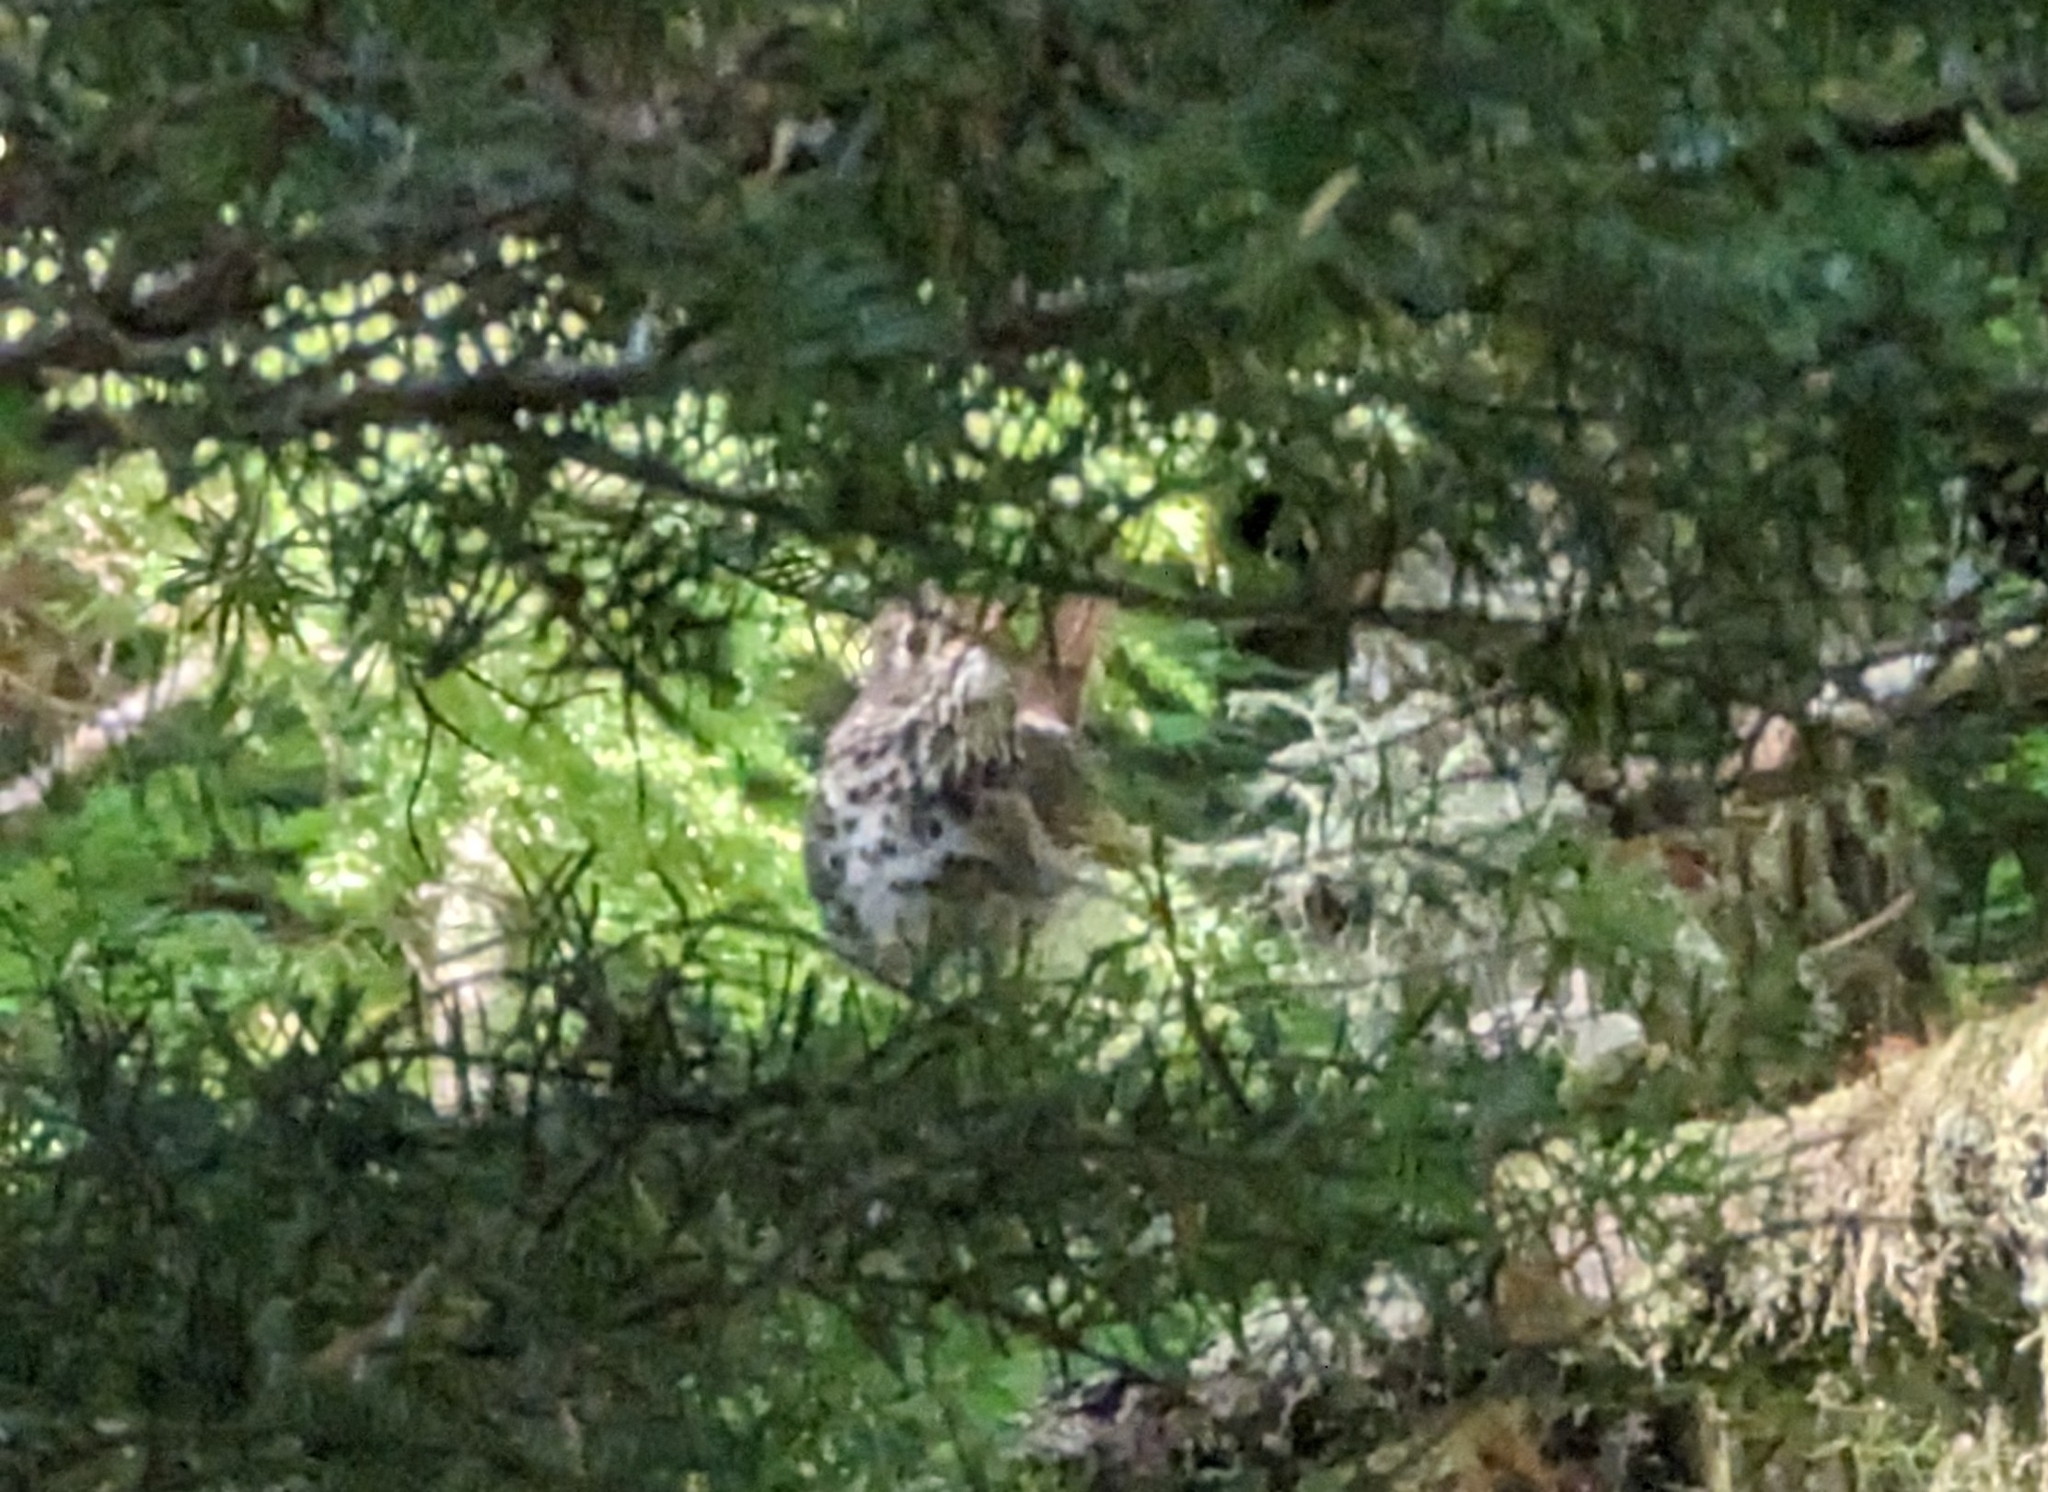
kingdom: Animalia
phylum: Chordata
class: Aves
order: Passeriformes
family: Turdidae
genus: Catharus
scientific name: Catharus guttatus
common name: Hermit thrush
